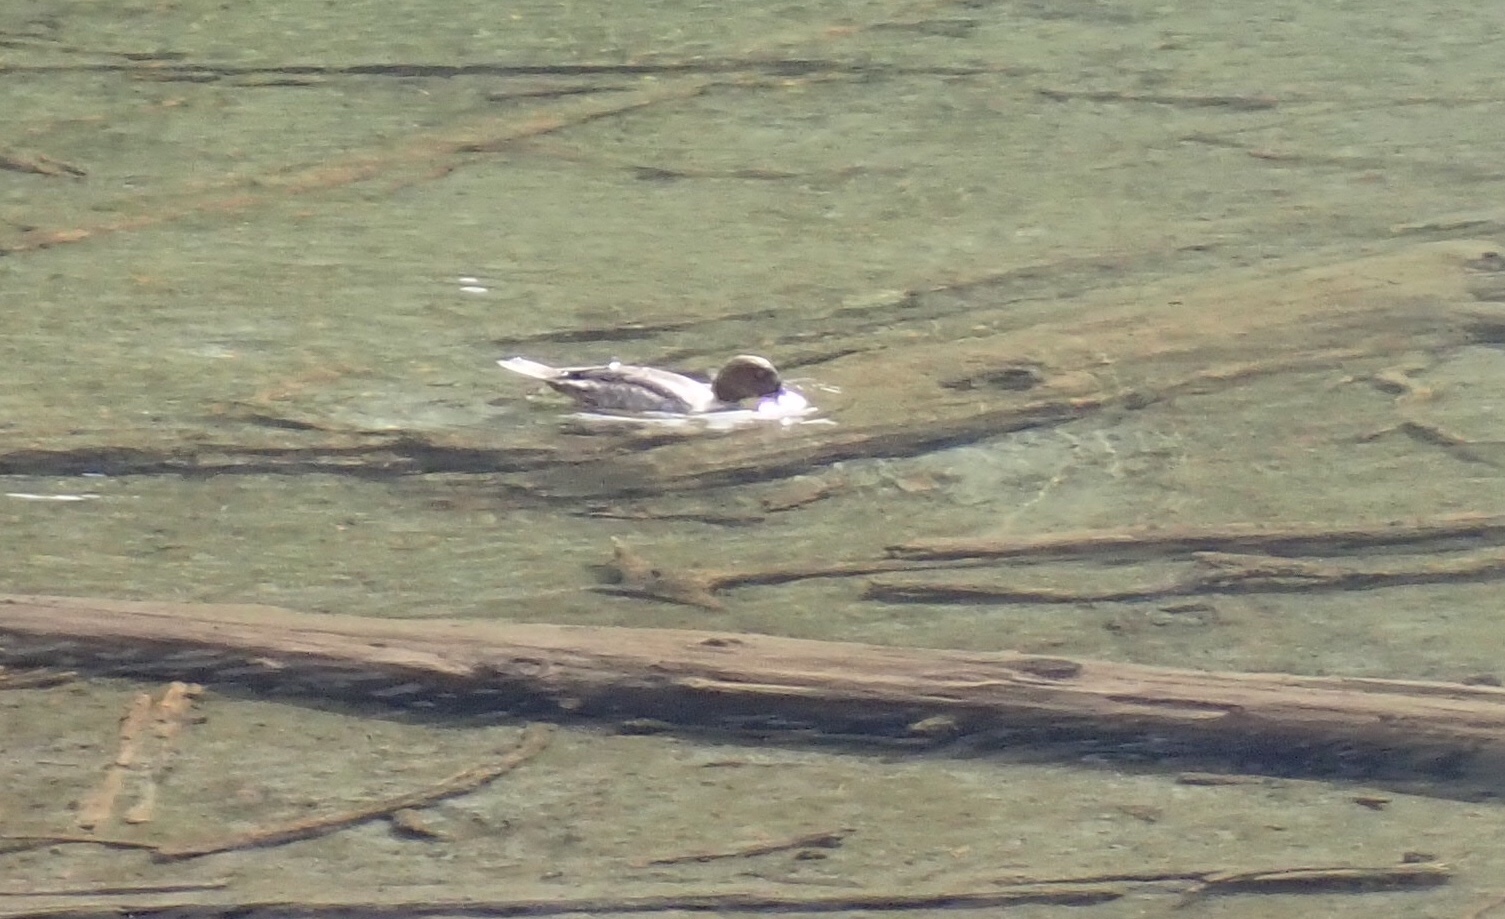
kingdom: Animalia
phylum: Chordata
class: Aves
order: Anseriformes
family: Anatidae
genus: Bucephala
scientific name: Bucephala clangula
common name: Common goldeneye
